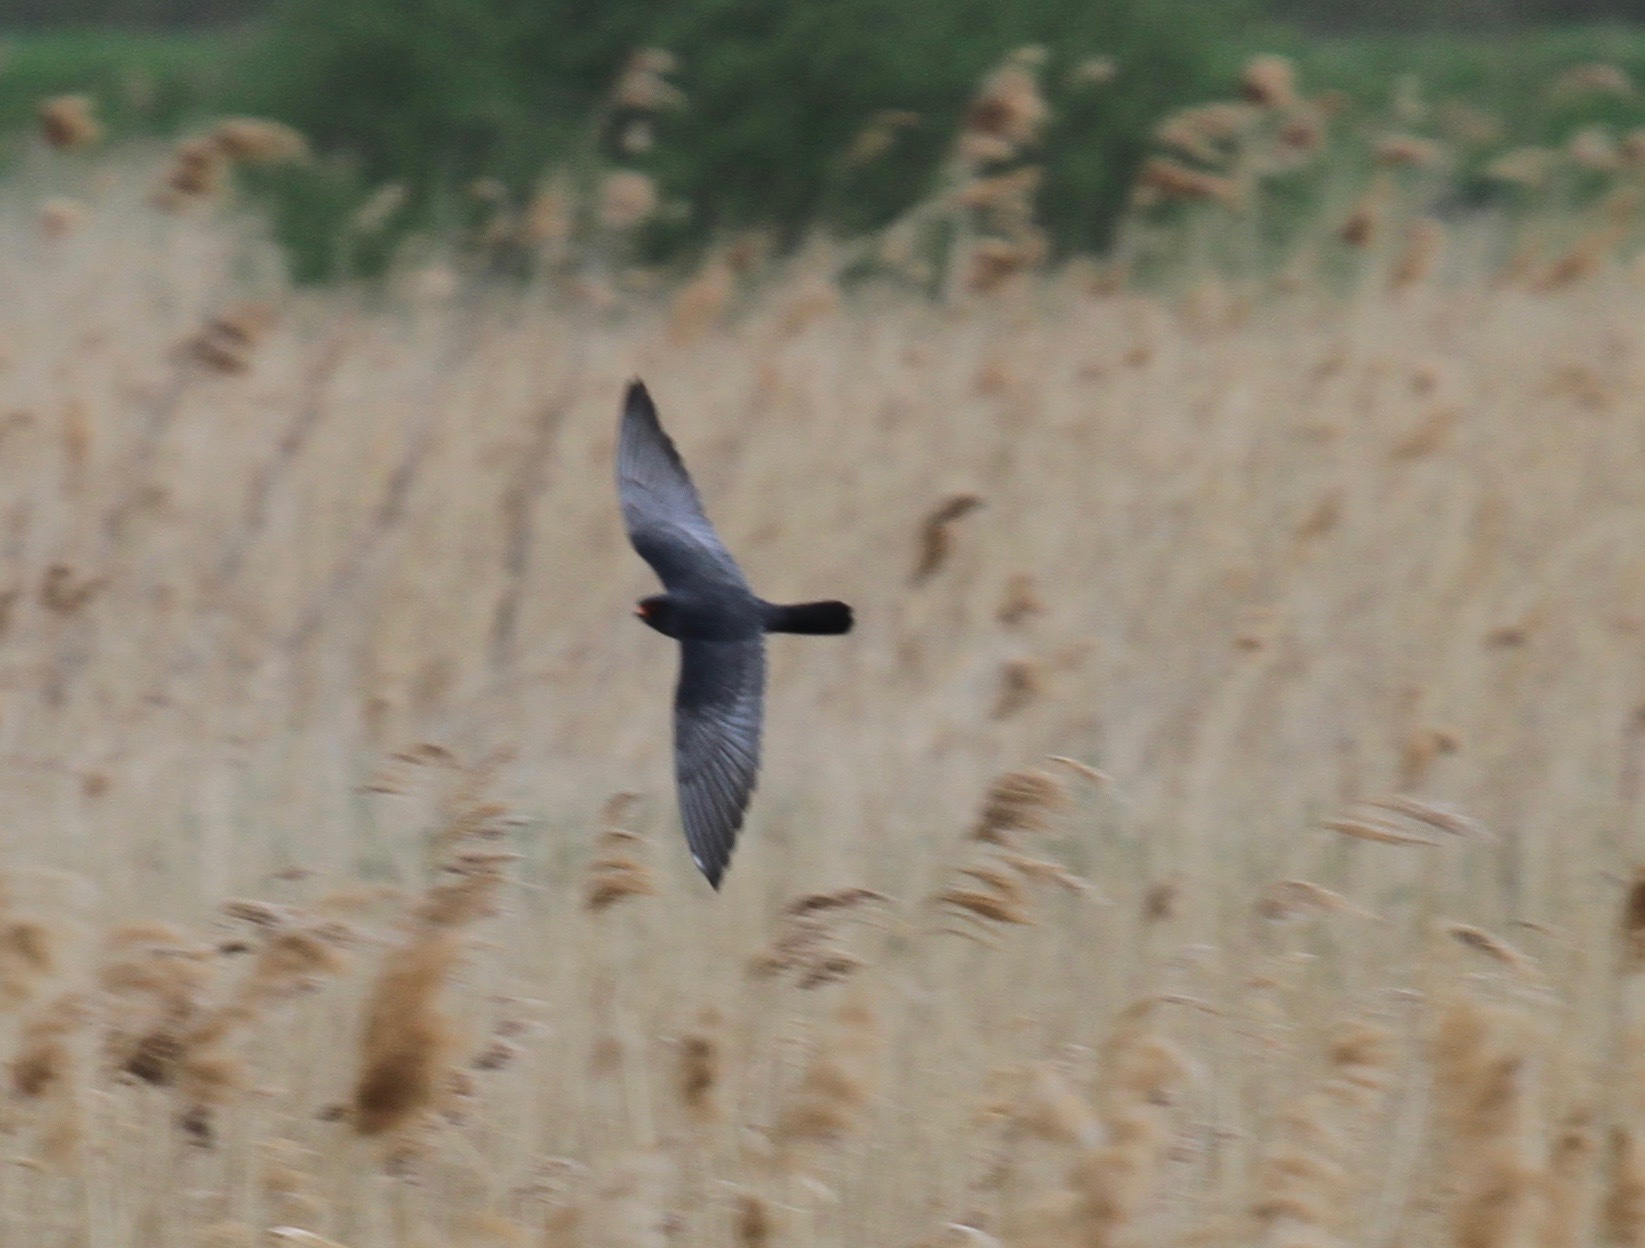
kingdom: Animalia
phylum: Chordata
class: Aves
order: Falconiformes
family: Falconidae
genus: Falco
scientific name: Falco vespertinus
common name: Red-footed falcon
